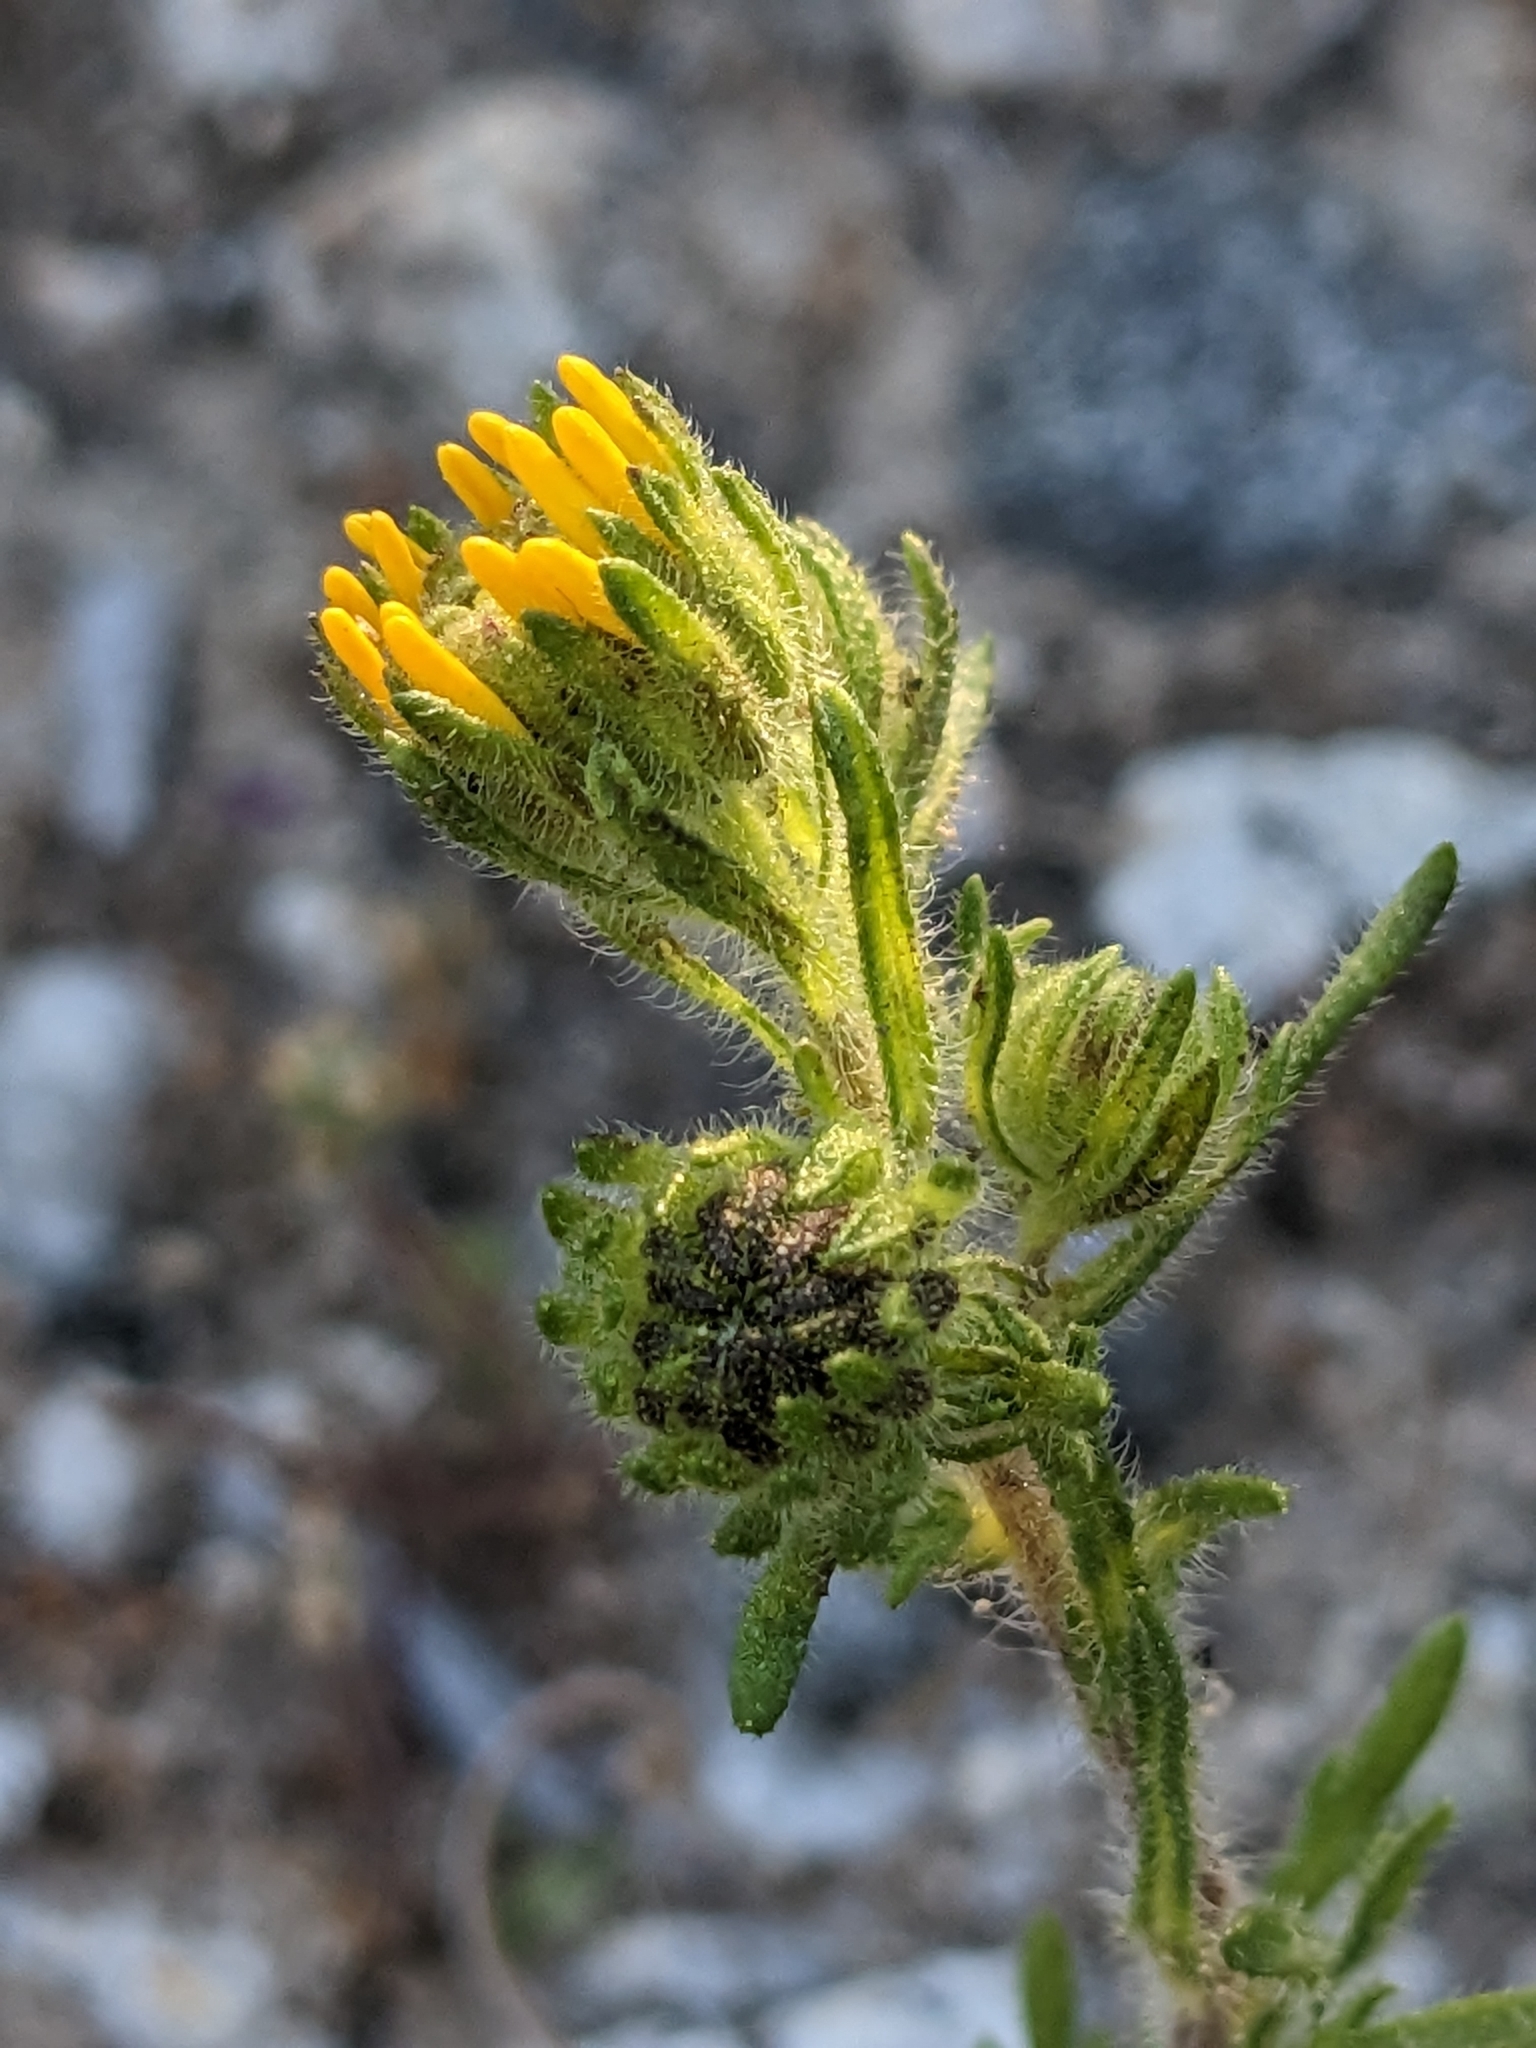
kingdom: Plantae
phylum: Tracheophyta
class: Magnoliopsida
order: Asterales
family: Asteraceae
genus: Deinandra
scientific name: Deinandra corymbosa
